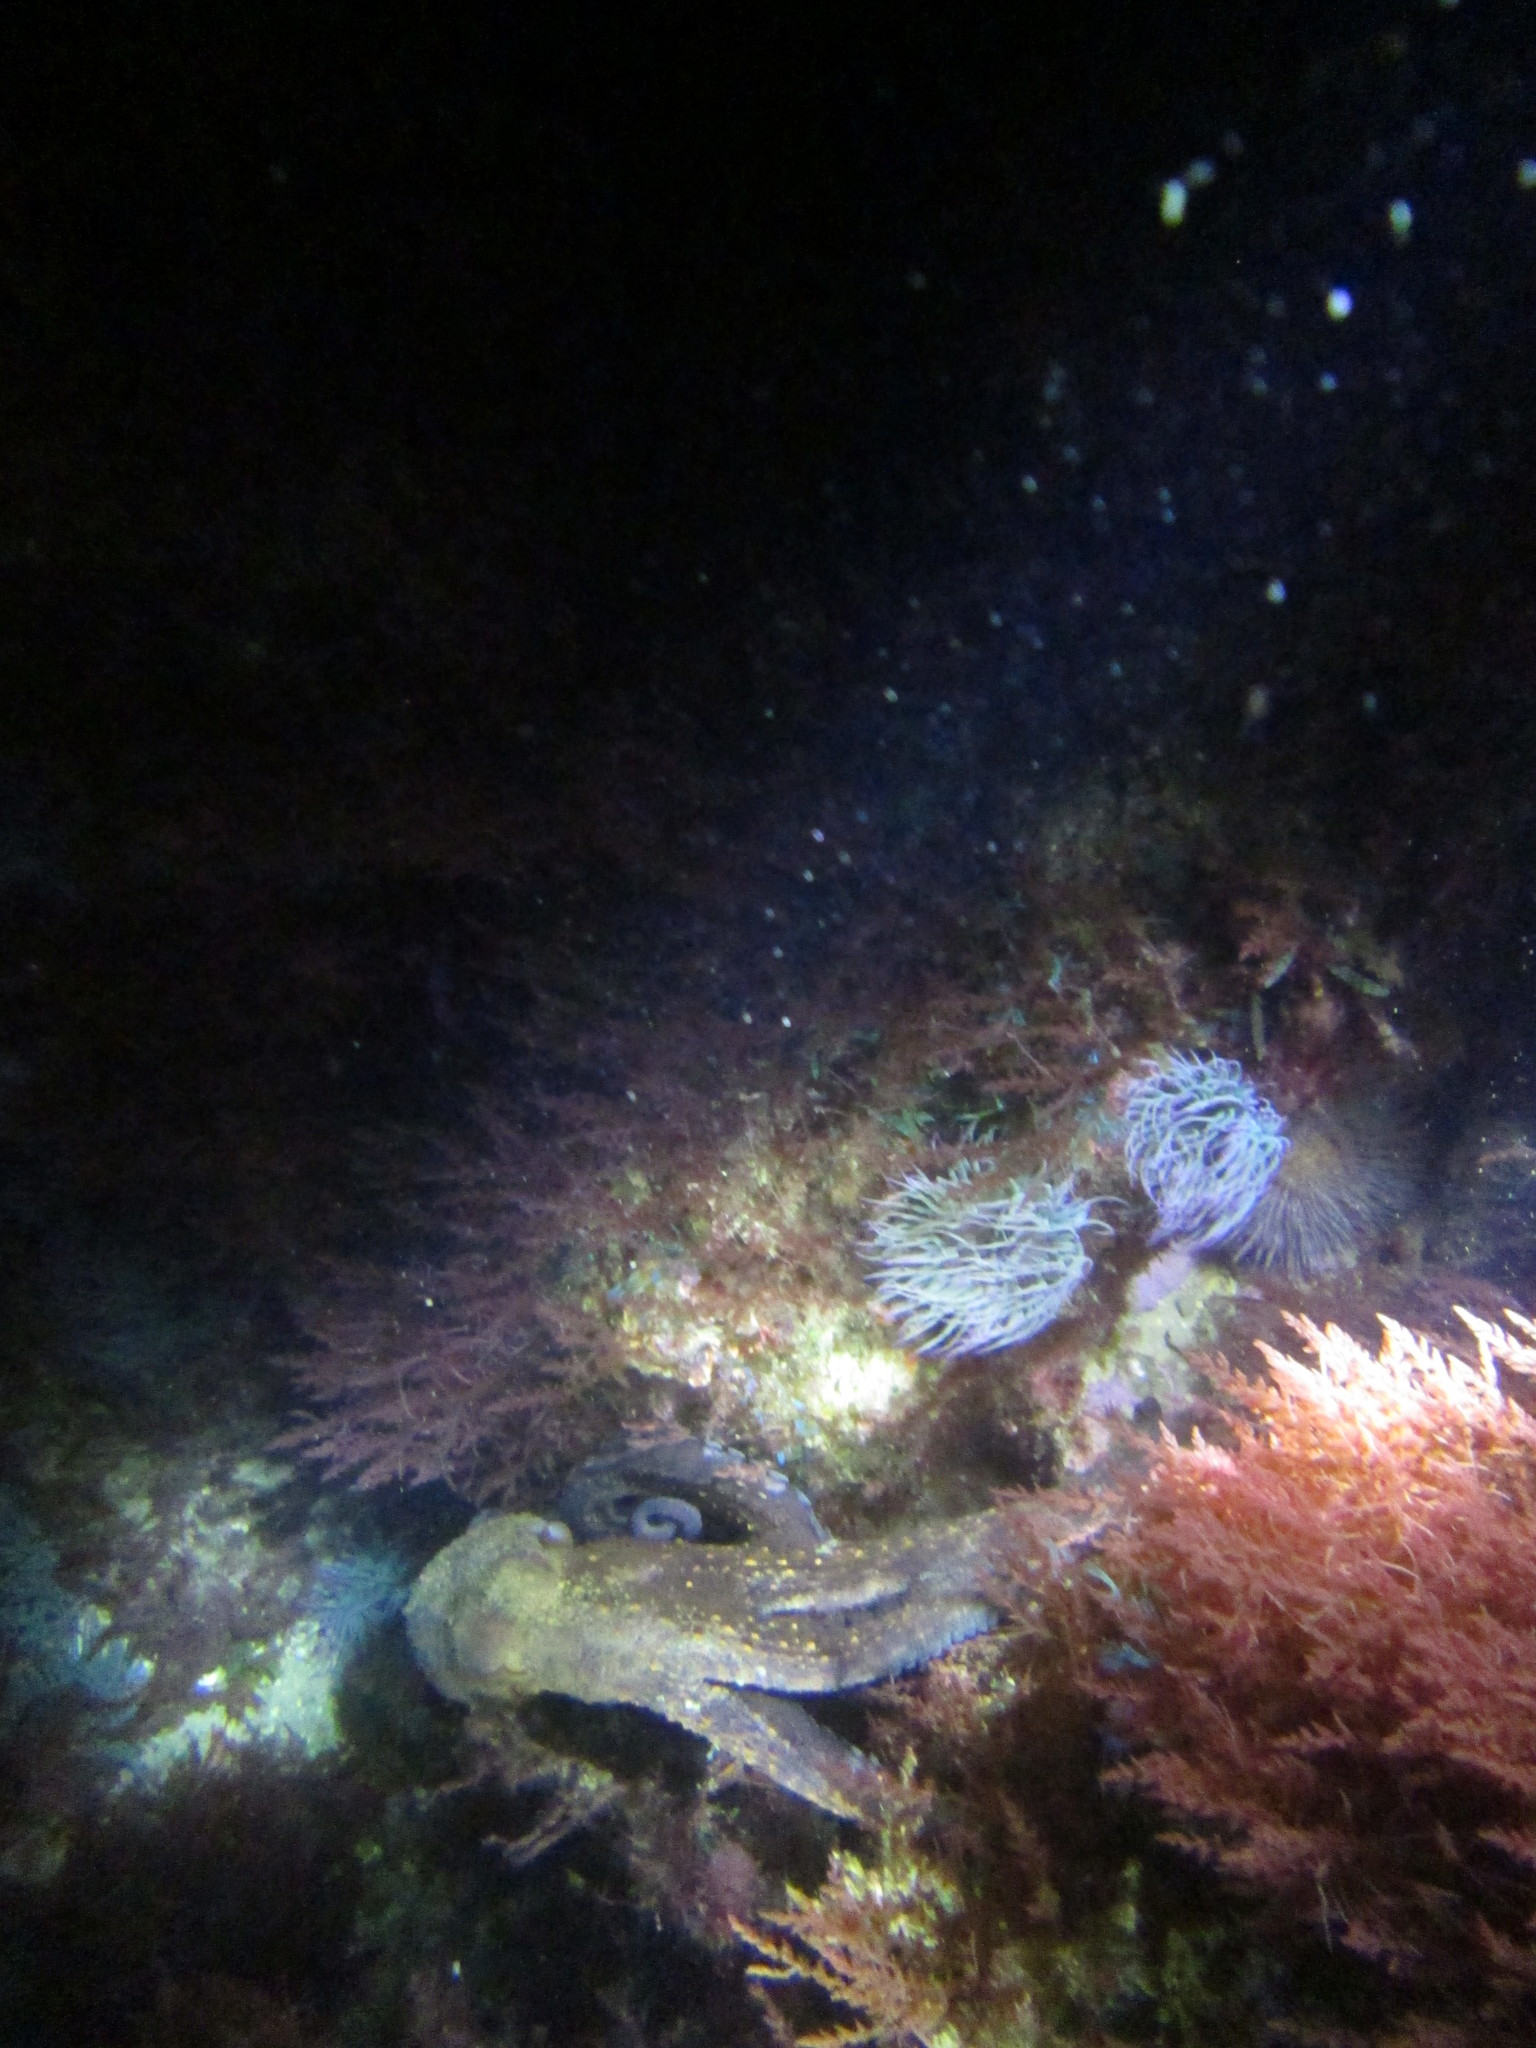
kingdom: Animalia
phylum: Mollusca
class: Cephalopoda
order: Octopoda
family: Octopodidae
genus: Octopus
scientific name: Octopus vulgaris
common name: Common octopus
